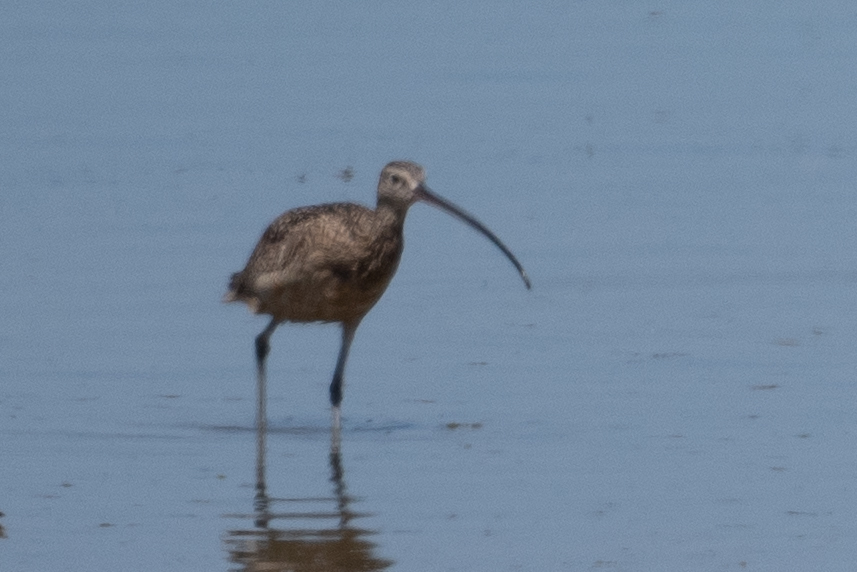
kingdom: Animalia
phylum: Chordata
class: Aves
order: Charadriiformes
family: Scolopacidae
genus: Numenius
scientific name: Numenius americanus
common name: Long-billed curlew
